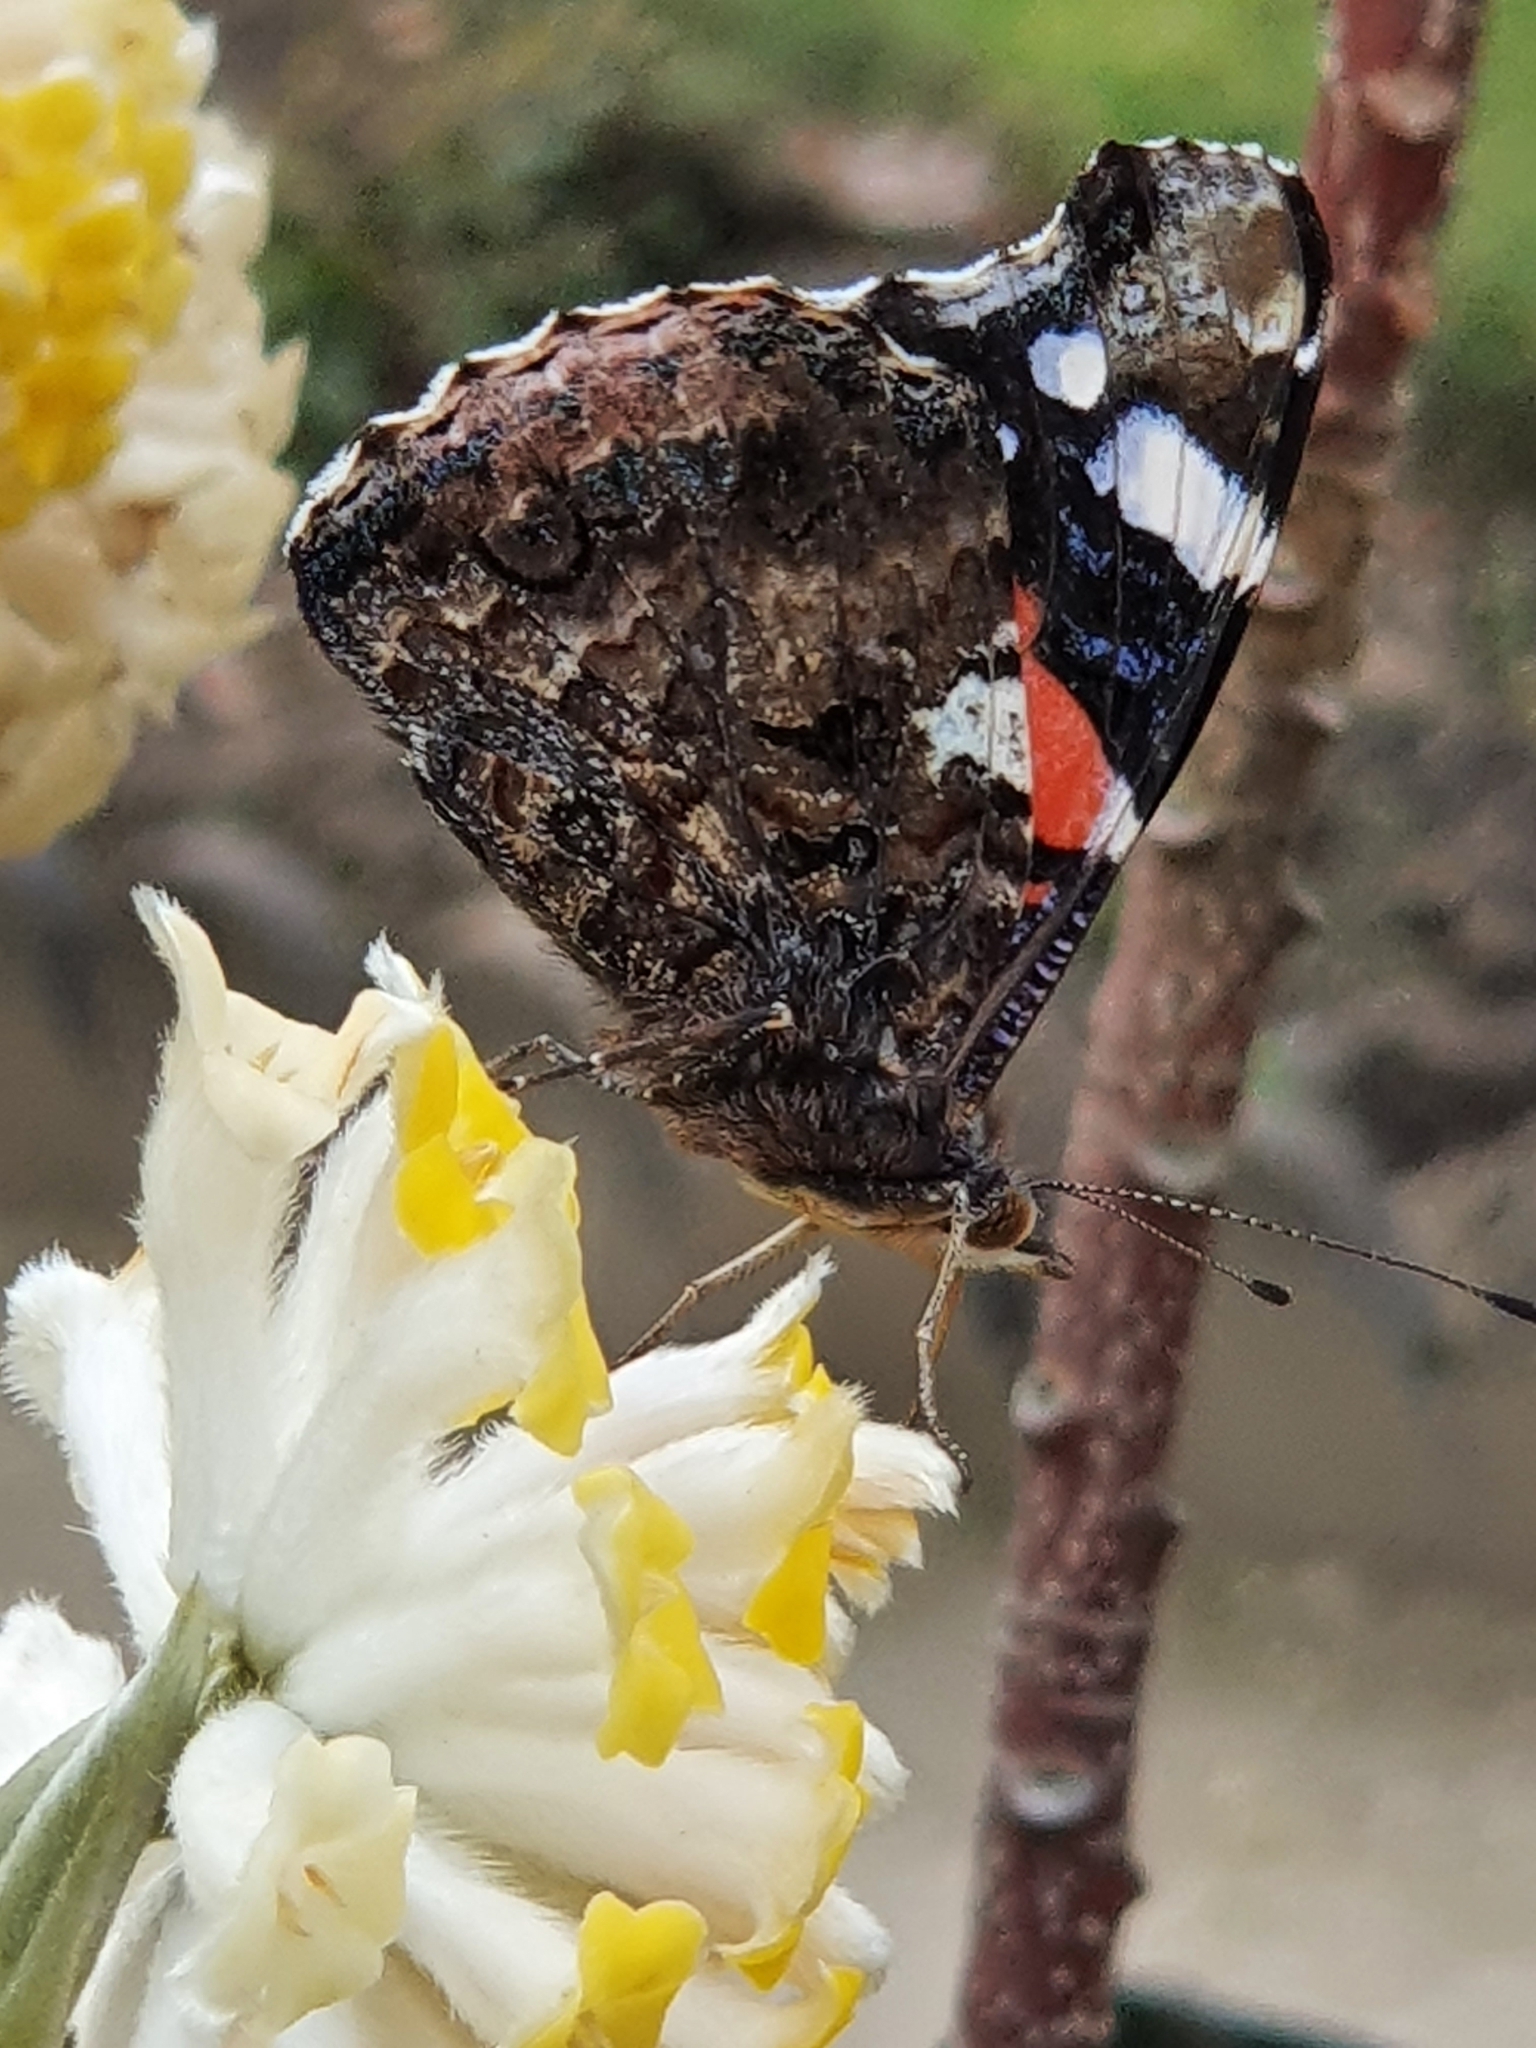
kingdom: Animalia
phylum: Arthropoda
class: Insecta
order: Lepidoptera
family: Nymphalidae
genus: Vanessa
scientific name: Vanessa atalanta
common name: Red admiral
